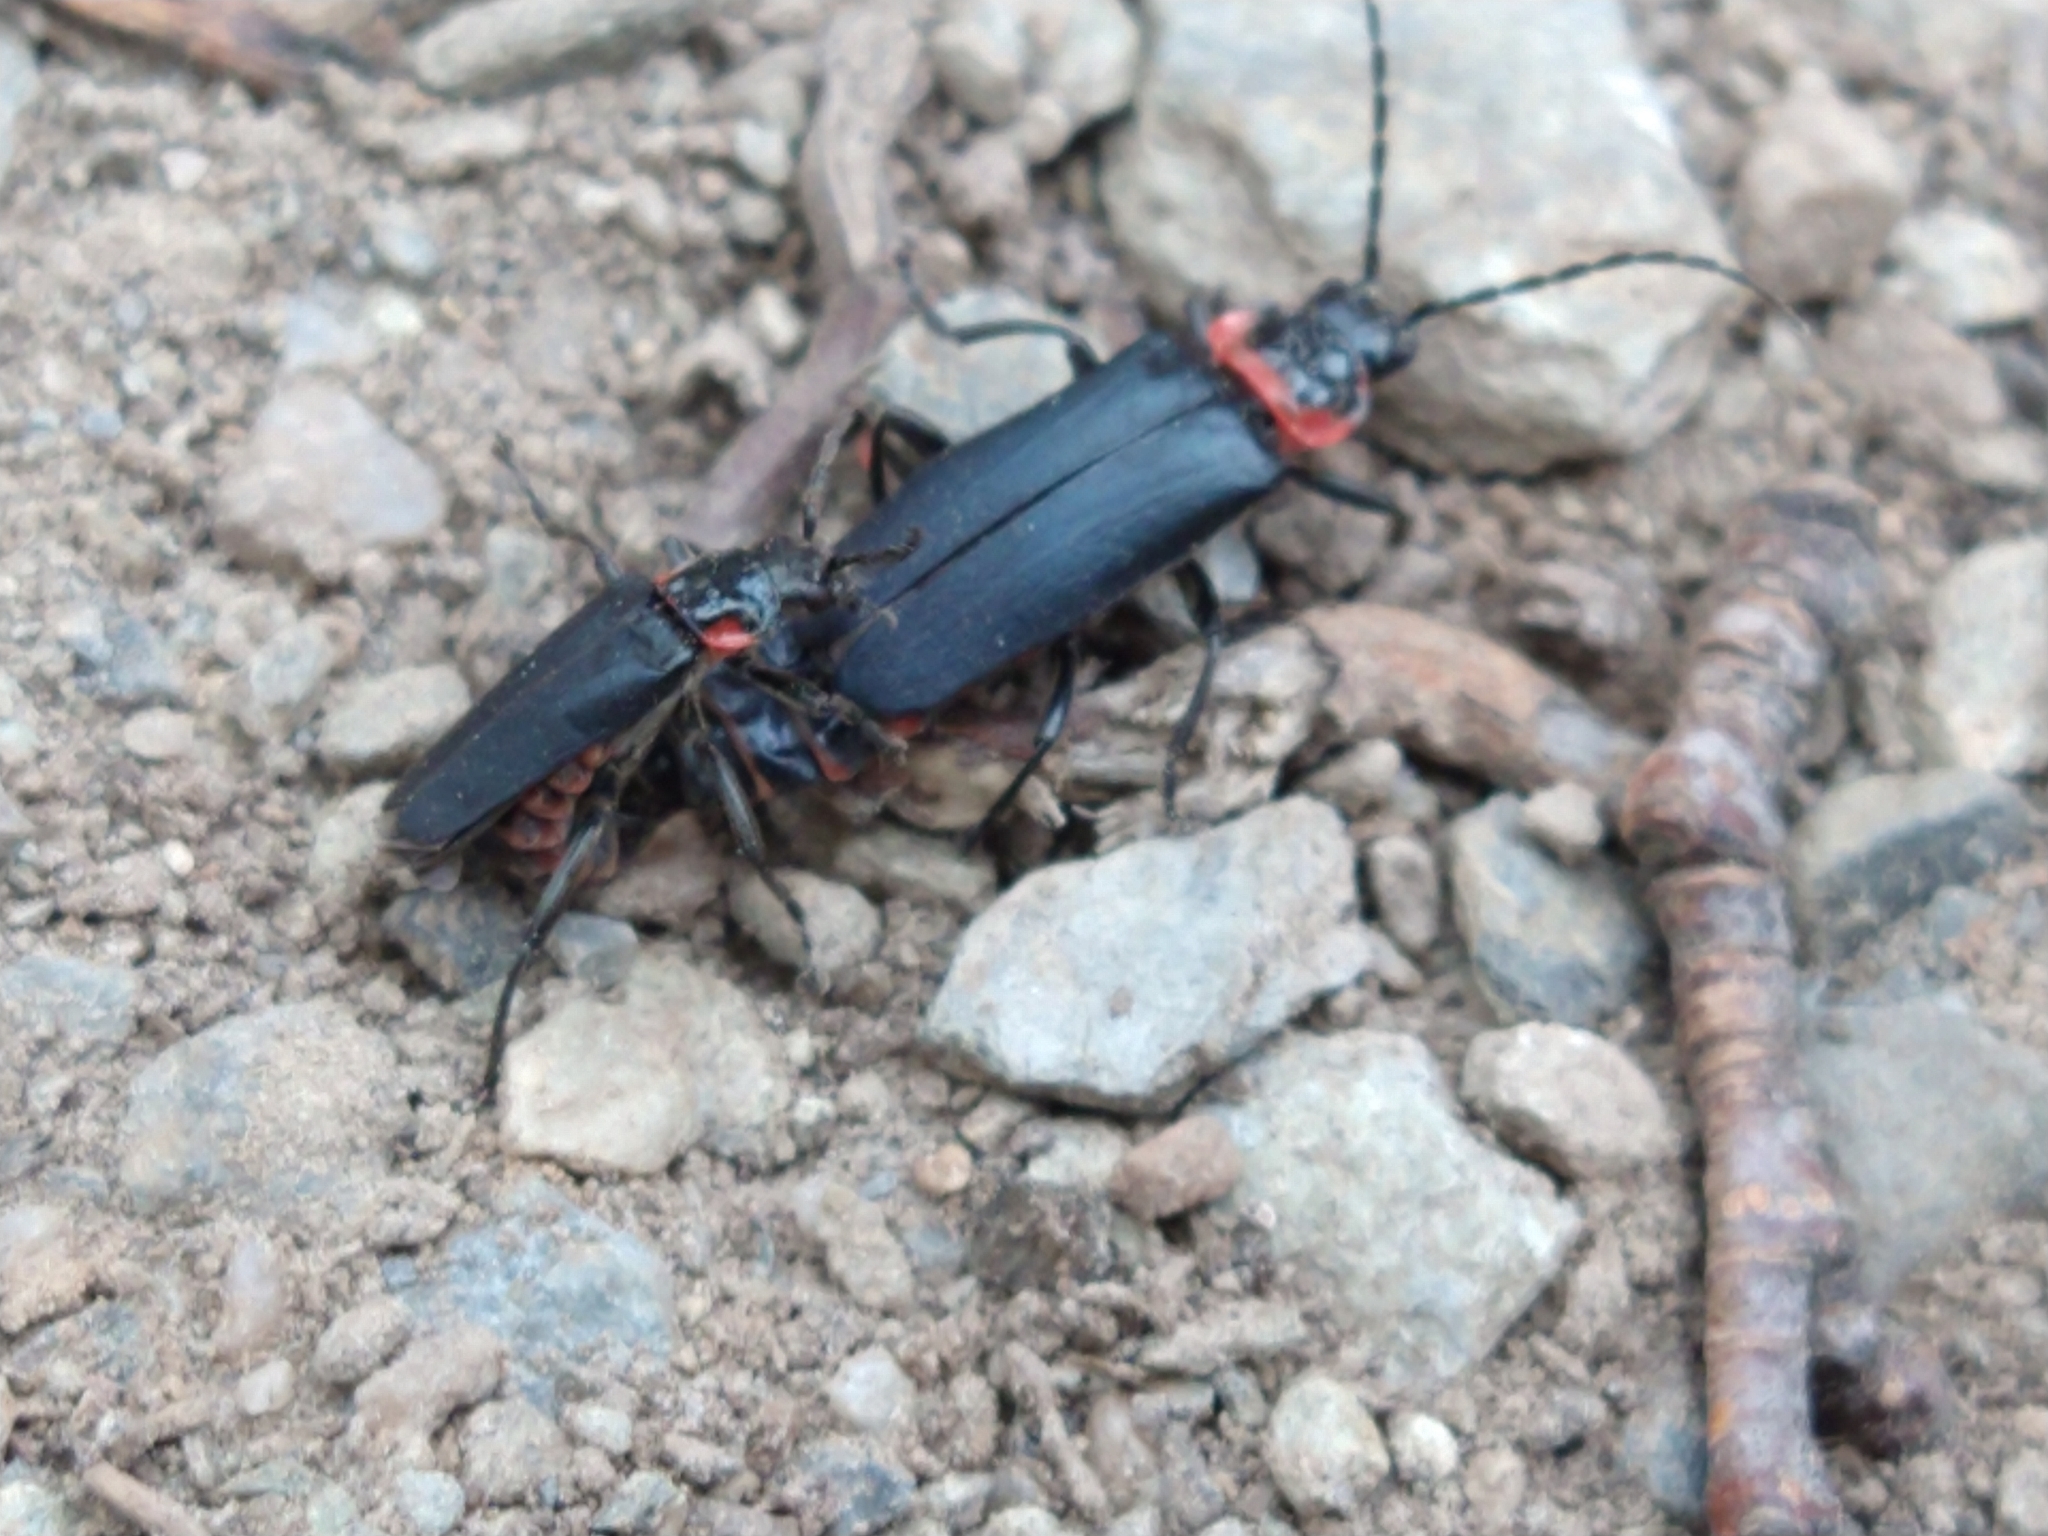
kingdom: Animalia
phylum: Arthropoda
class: Insecta
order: Coleoptera
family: Cantharidae
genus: Chauliognathus
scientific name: Chauliognathus
